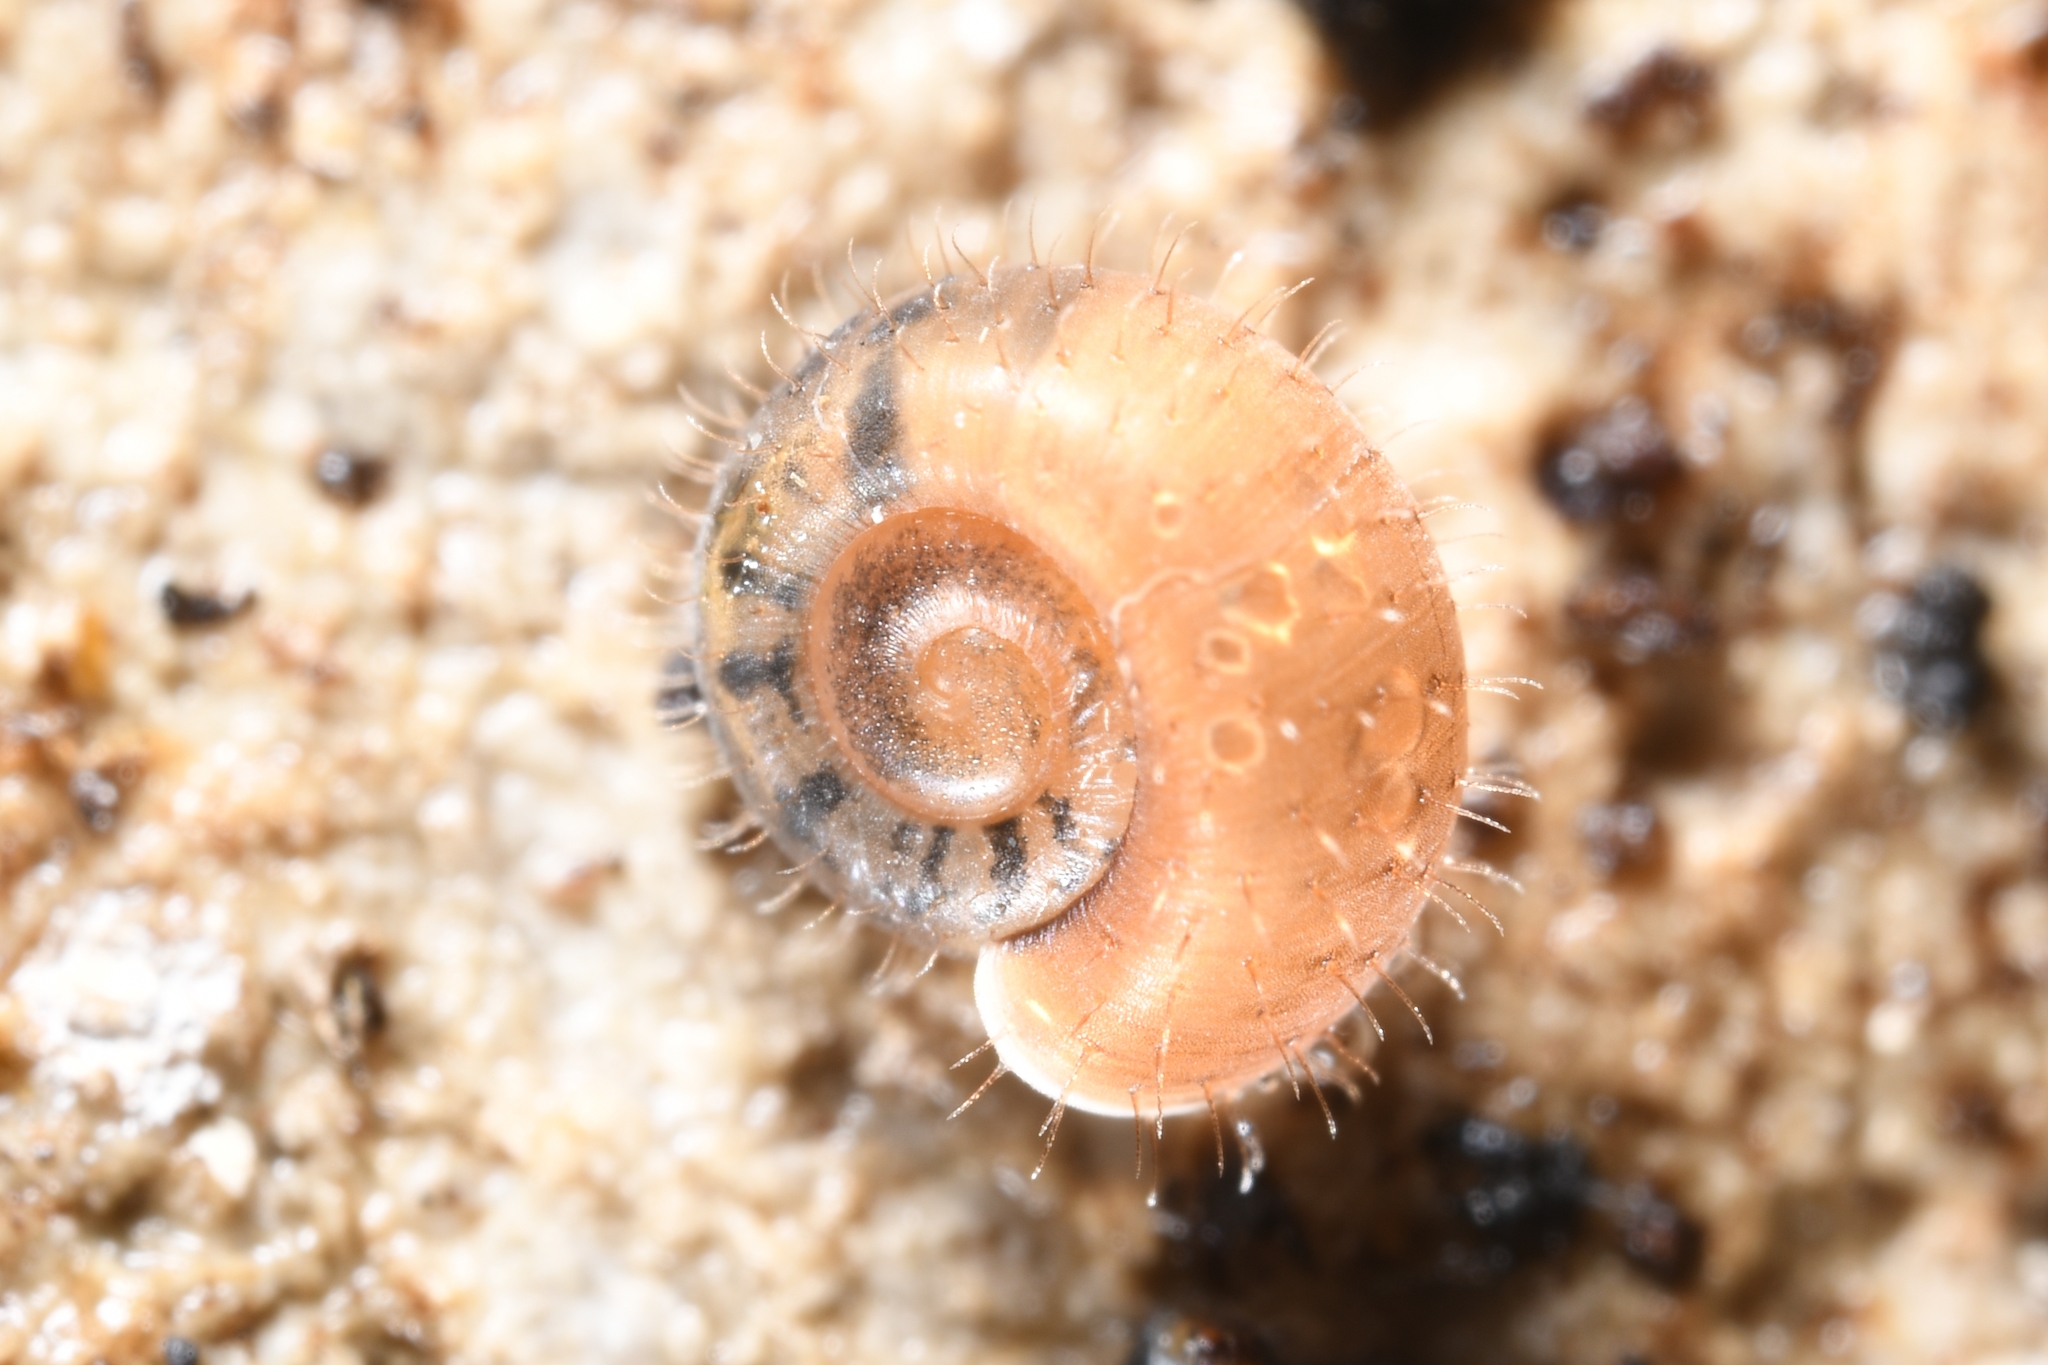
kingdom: Animalia
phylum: Mollusca
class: Gastropoda
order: Stylommatophora
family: Helicodontidae
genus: Helicodonta
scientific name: Helicodonta obvoluta
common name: Cheese snail
